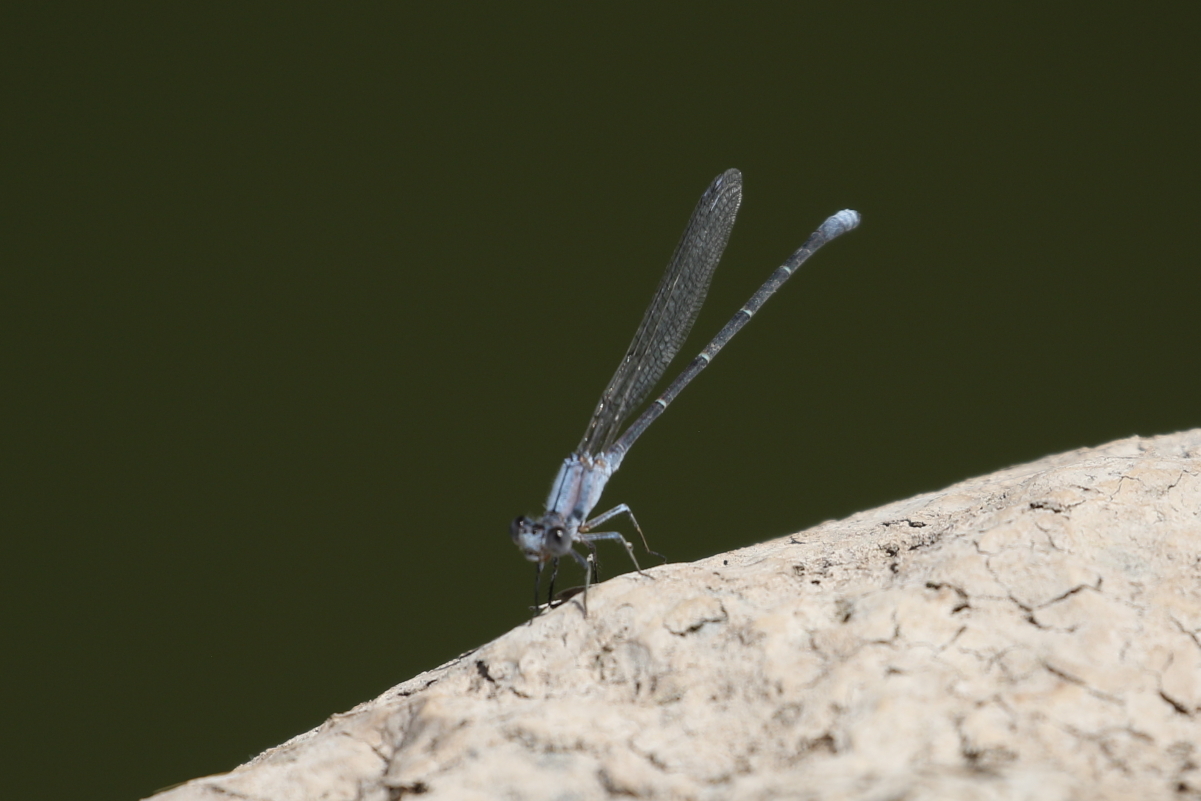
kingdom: Animalia
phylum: Arthropoda
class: Insecta
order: Odonata
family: Coenagrionidae
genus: Argia
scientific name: Argia moesta
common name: Powdered dancer
